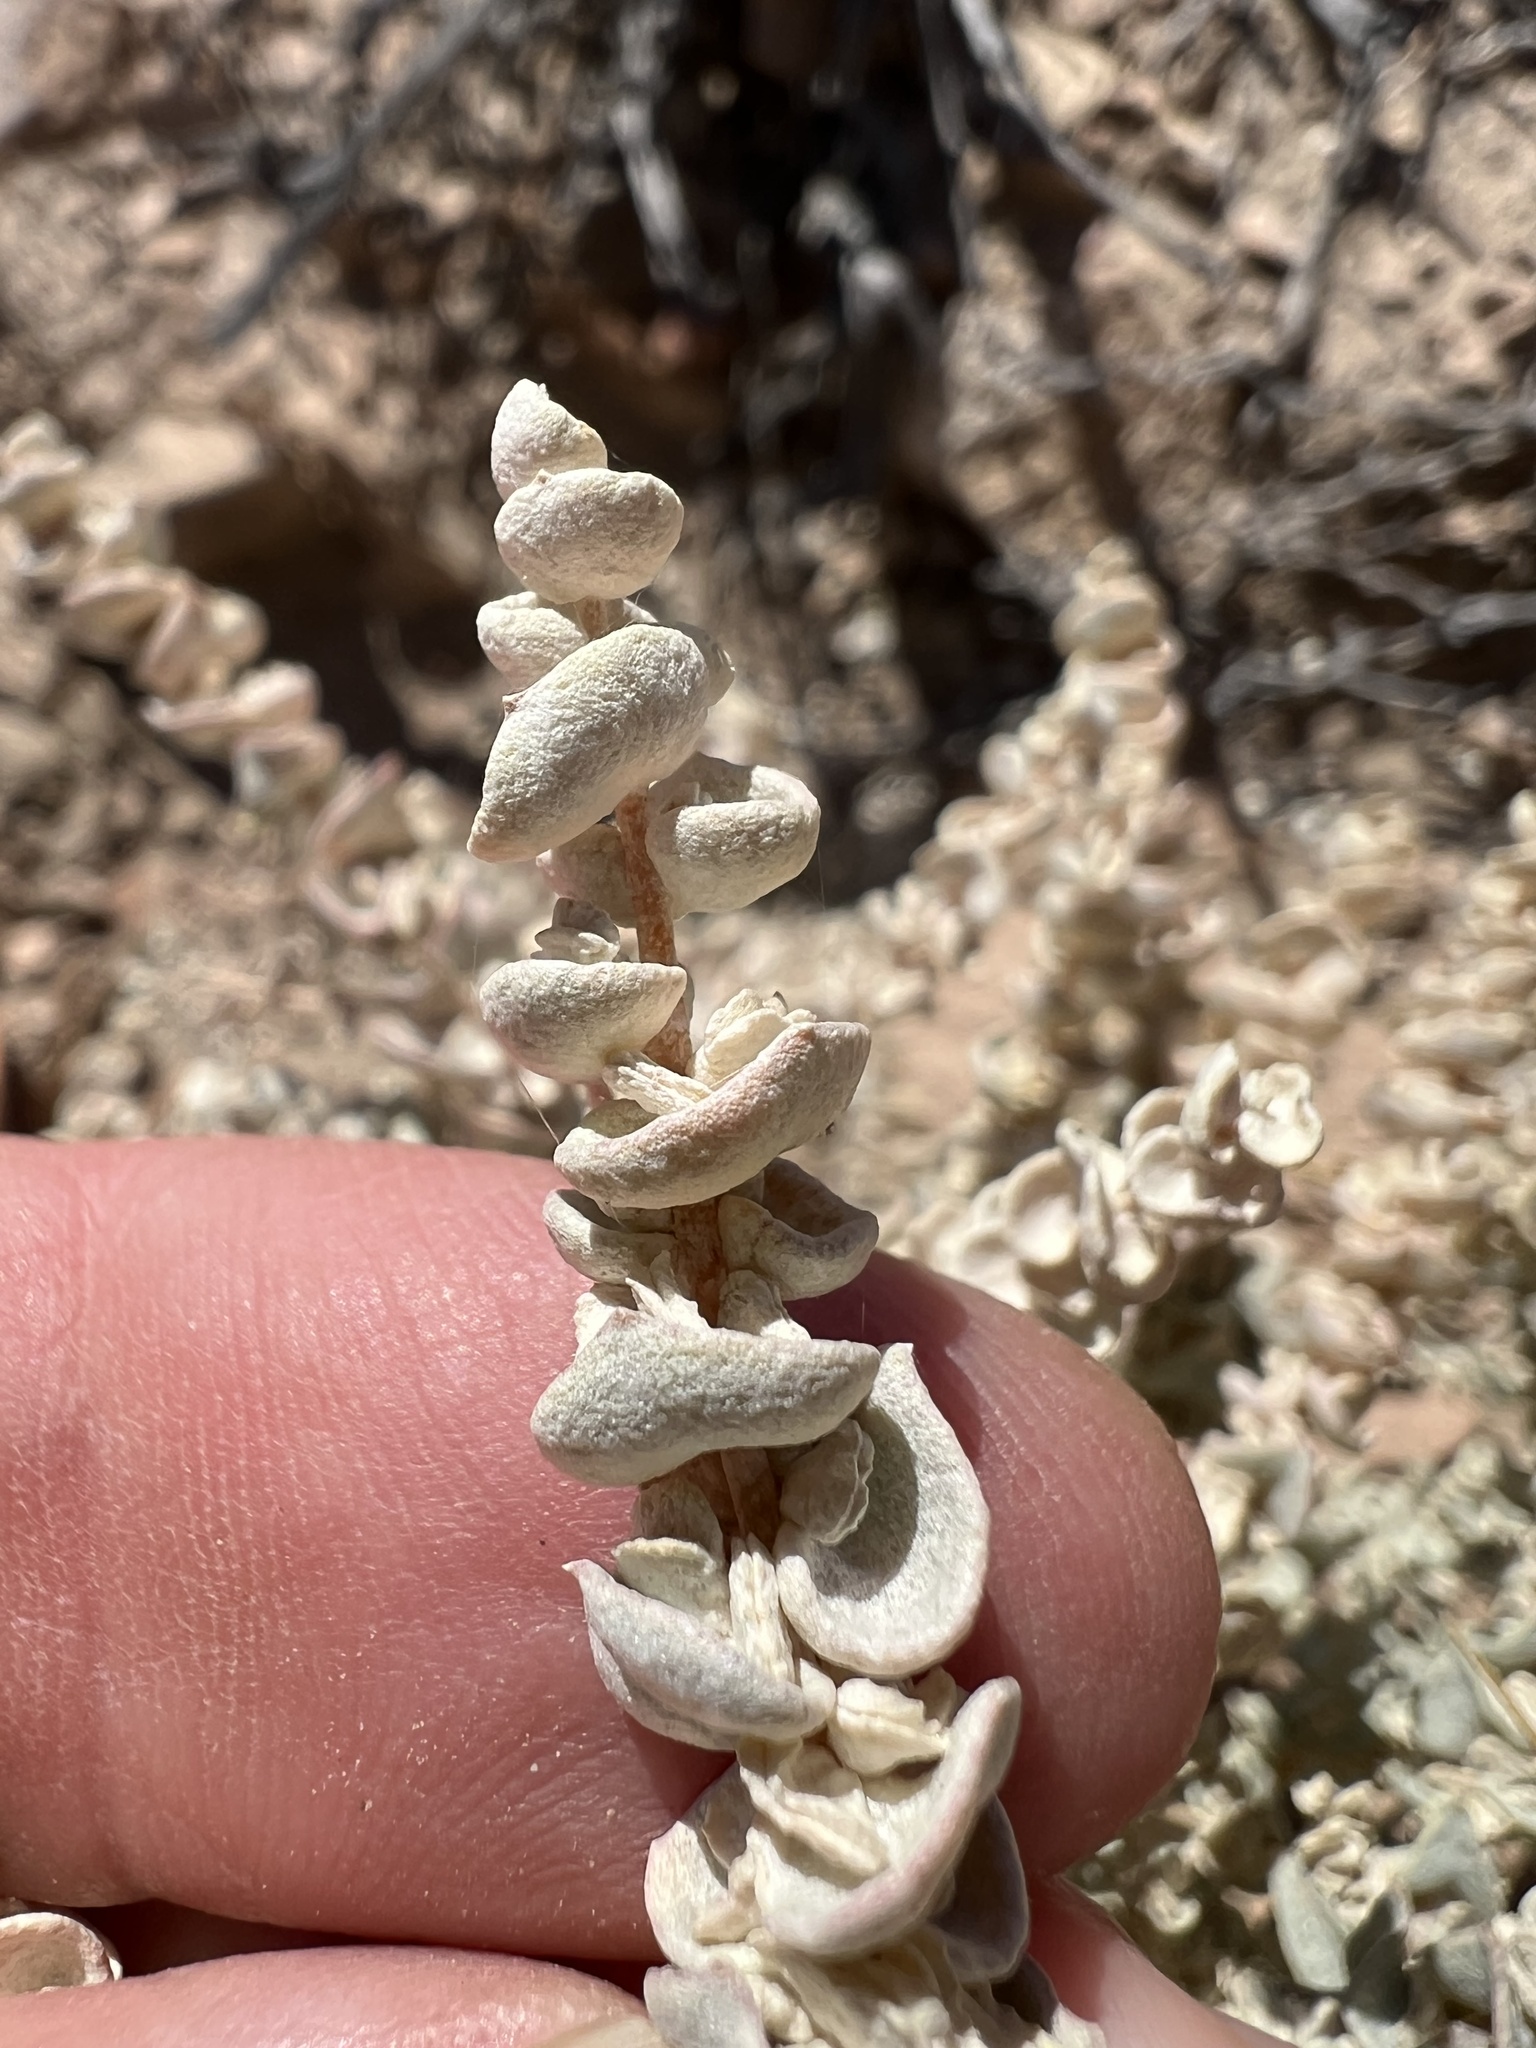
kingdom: Plantae
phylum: Tracheophyta
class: Magnoliopsida
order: Caryophyllales
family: Amaranthaceae
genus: Atriplex
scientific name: Atriplex parryi
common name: Parry's saltbush
